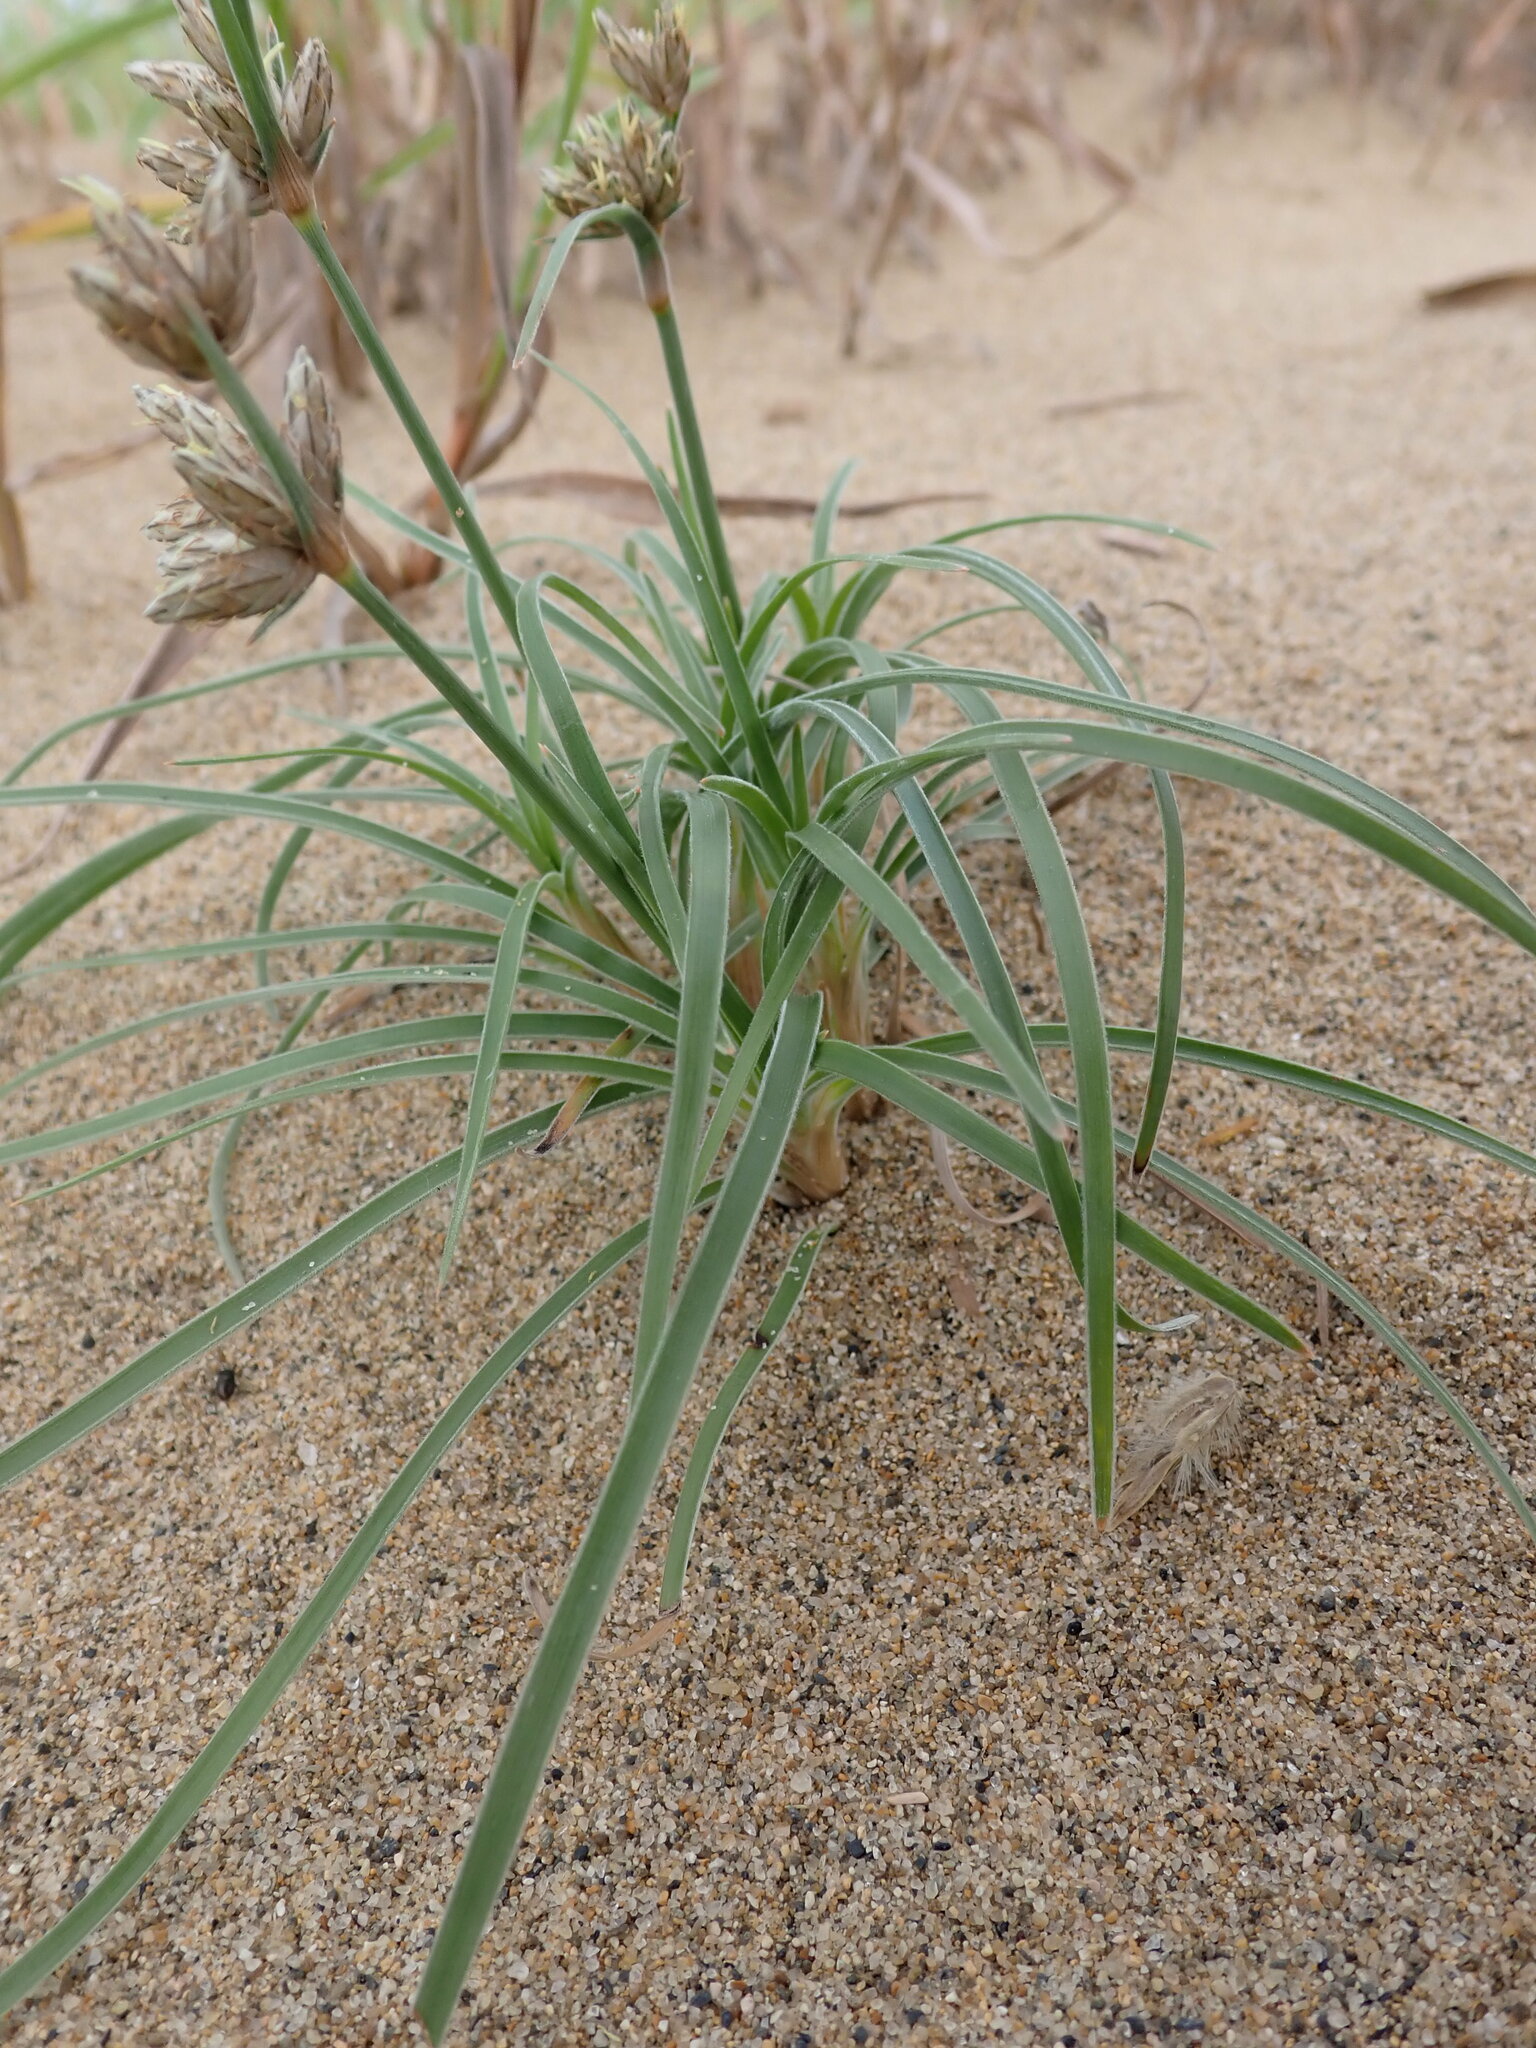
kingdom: Plantae
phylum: Tracheophyta
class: Liliopsida
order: Poales
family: Cyperaceae
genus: Fimbristylis
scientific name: Fimbristylis sericea
